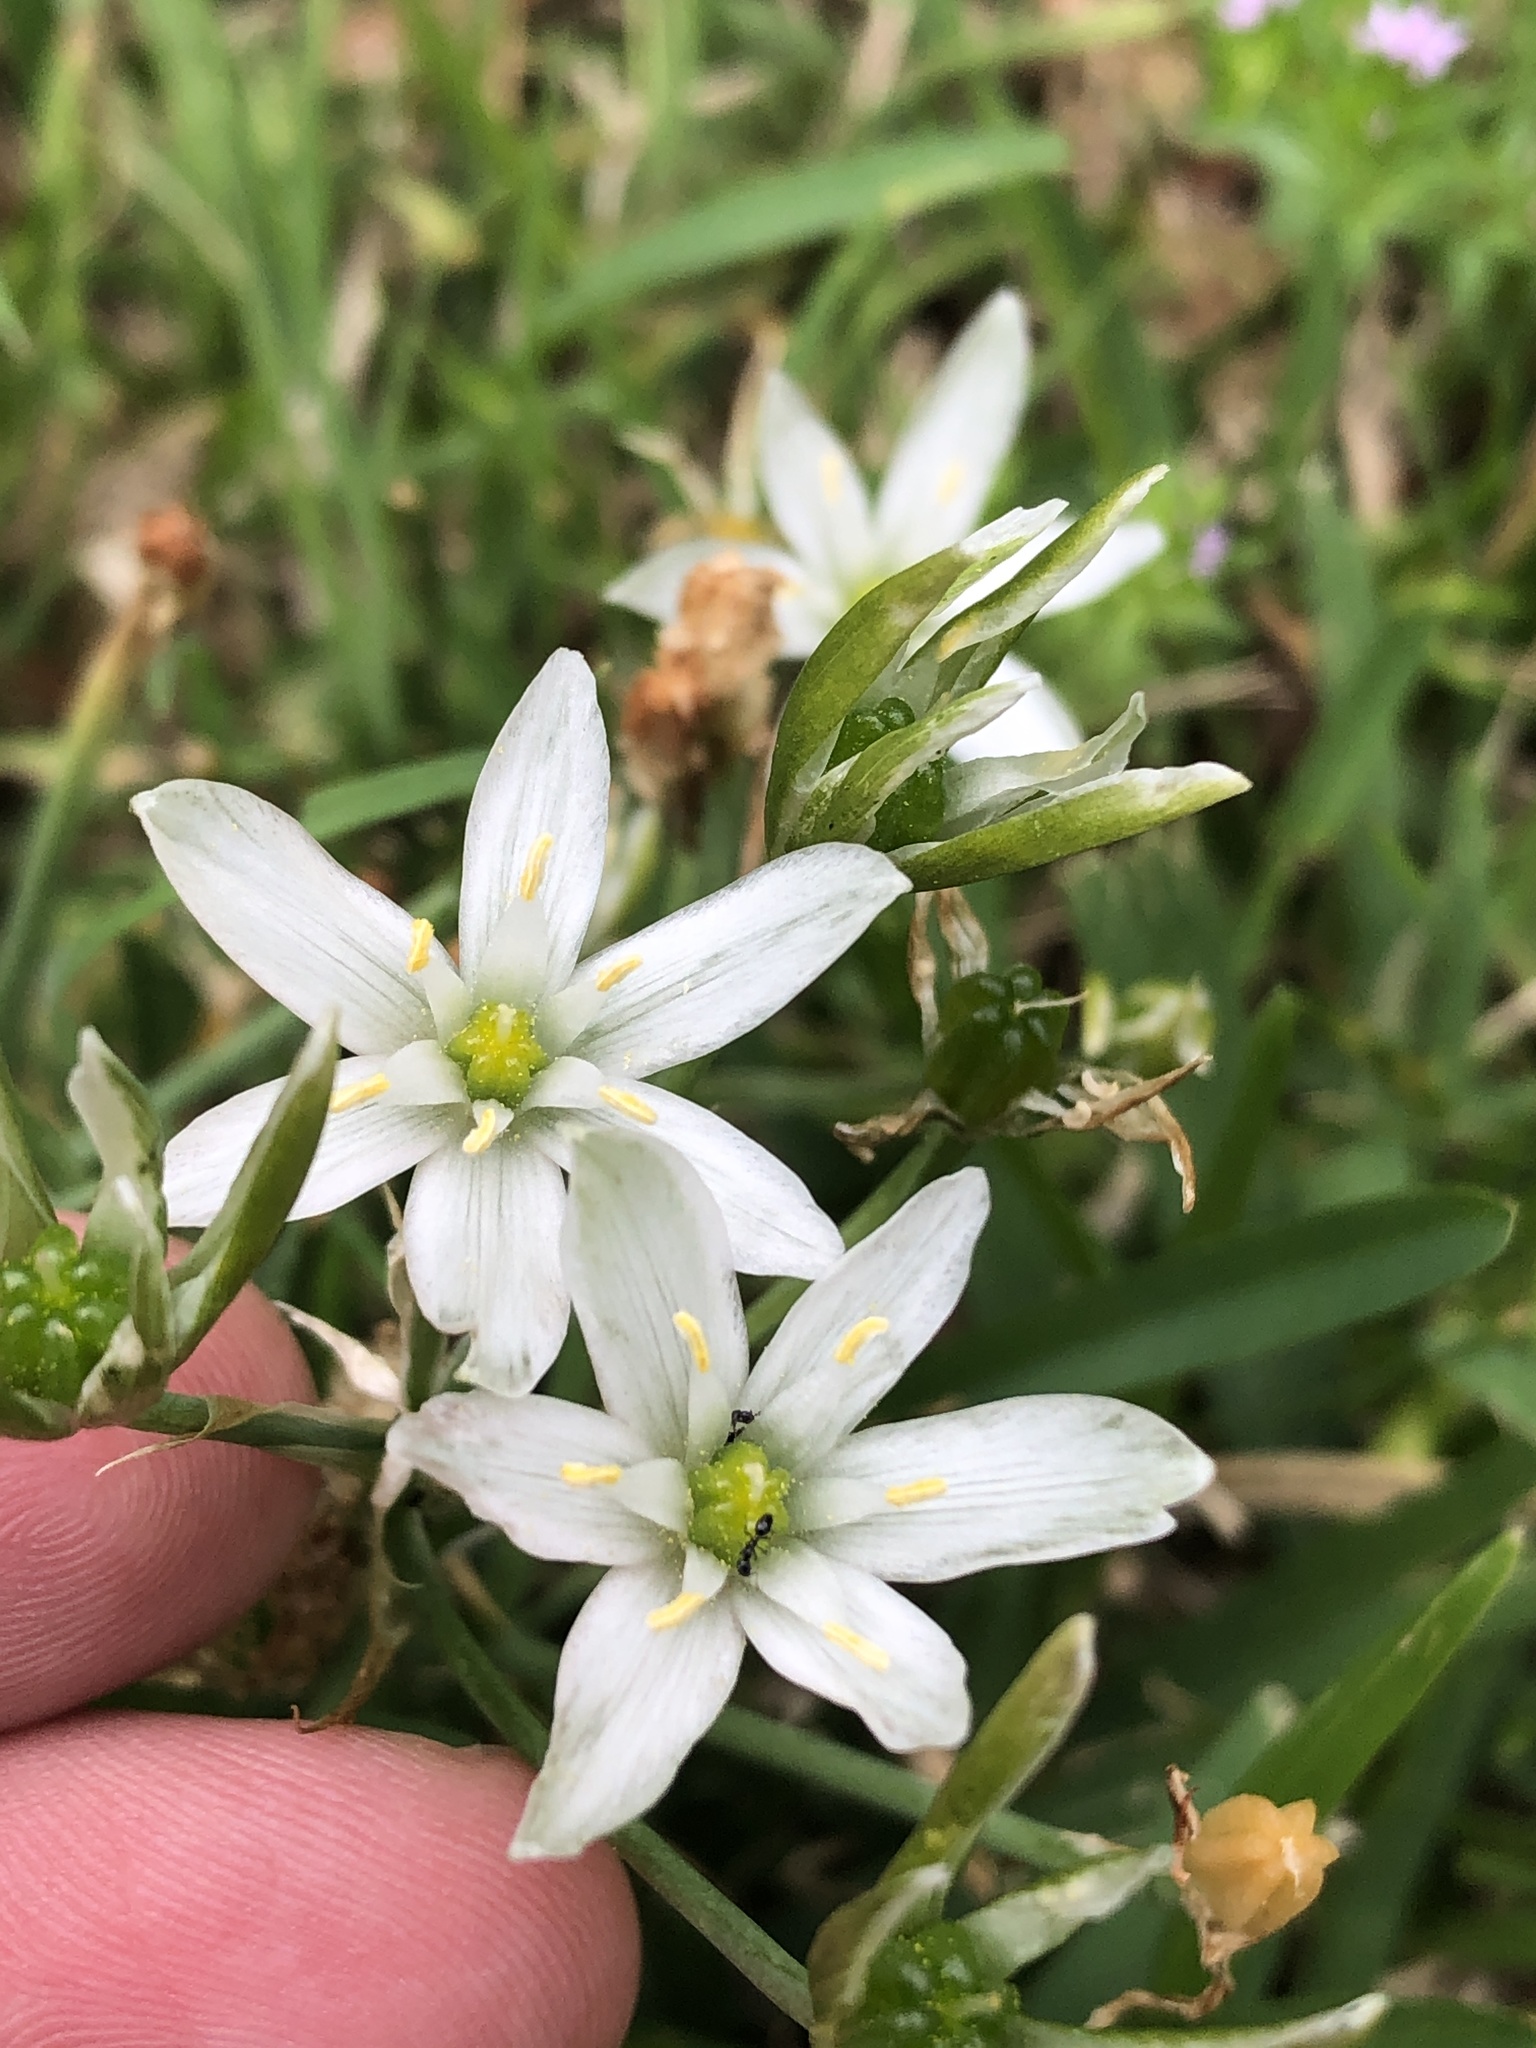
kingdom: Plantae
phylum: Tracheophyta
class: Liliopsida
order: Asparagales
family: Asparagaceae
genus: Ornithogalum
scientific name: Ornithogalum umbellatum
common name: Garden star-of-bethlehem
